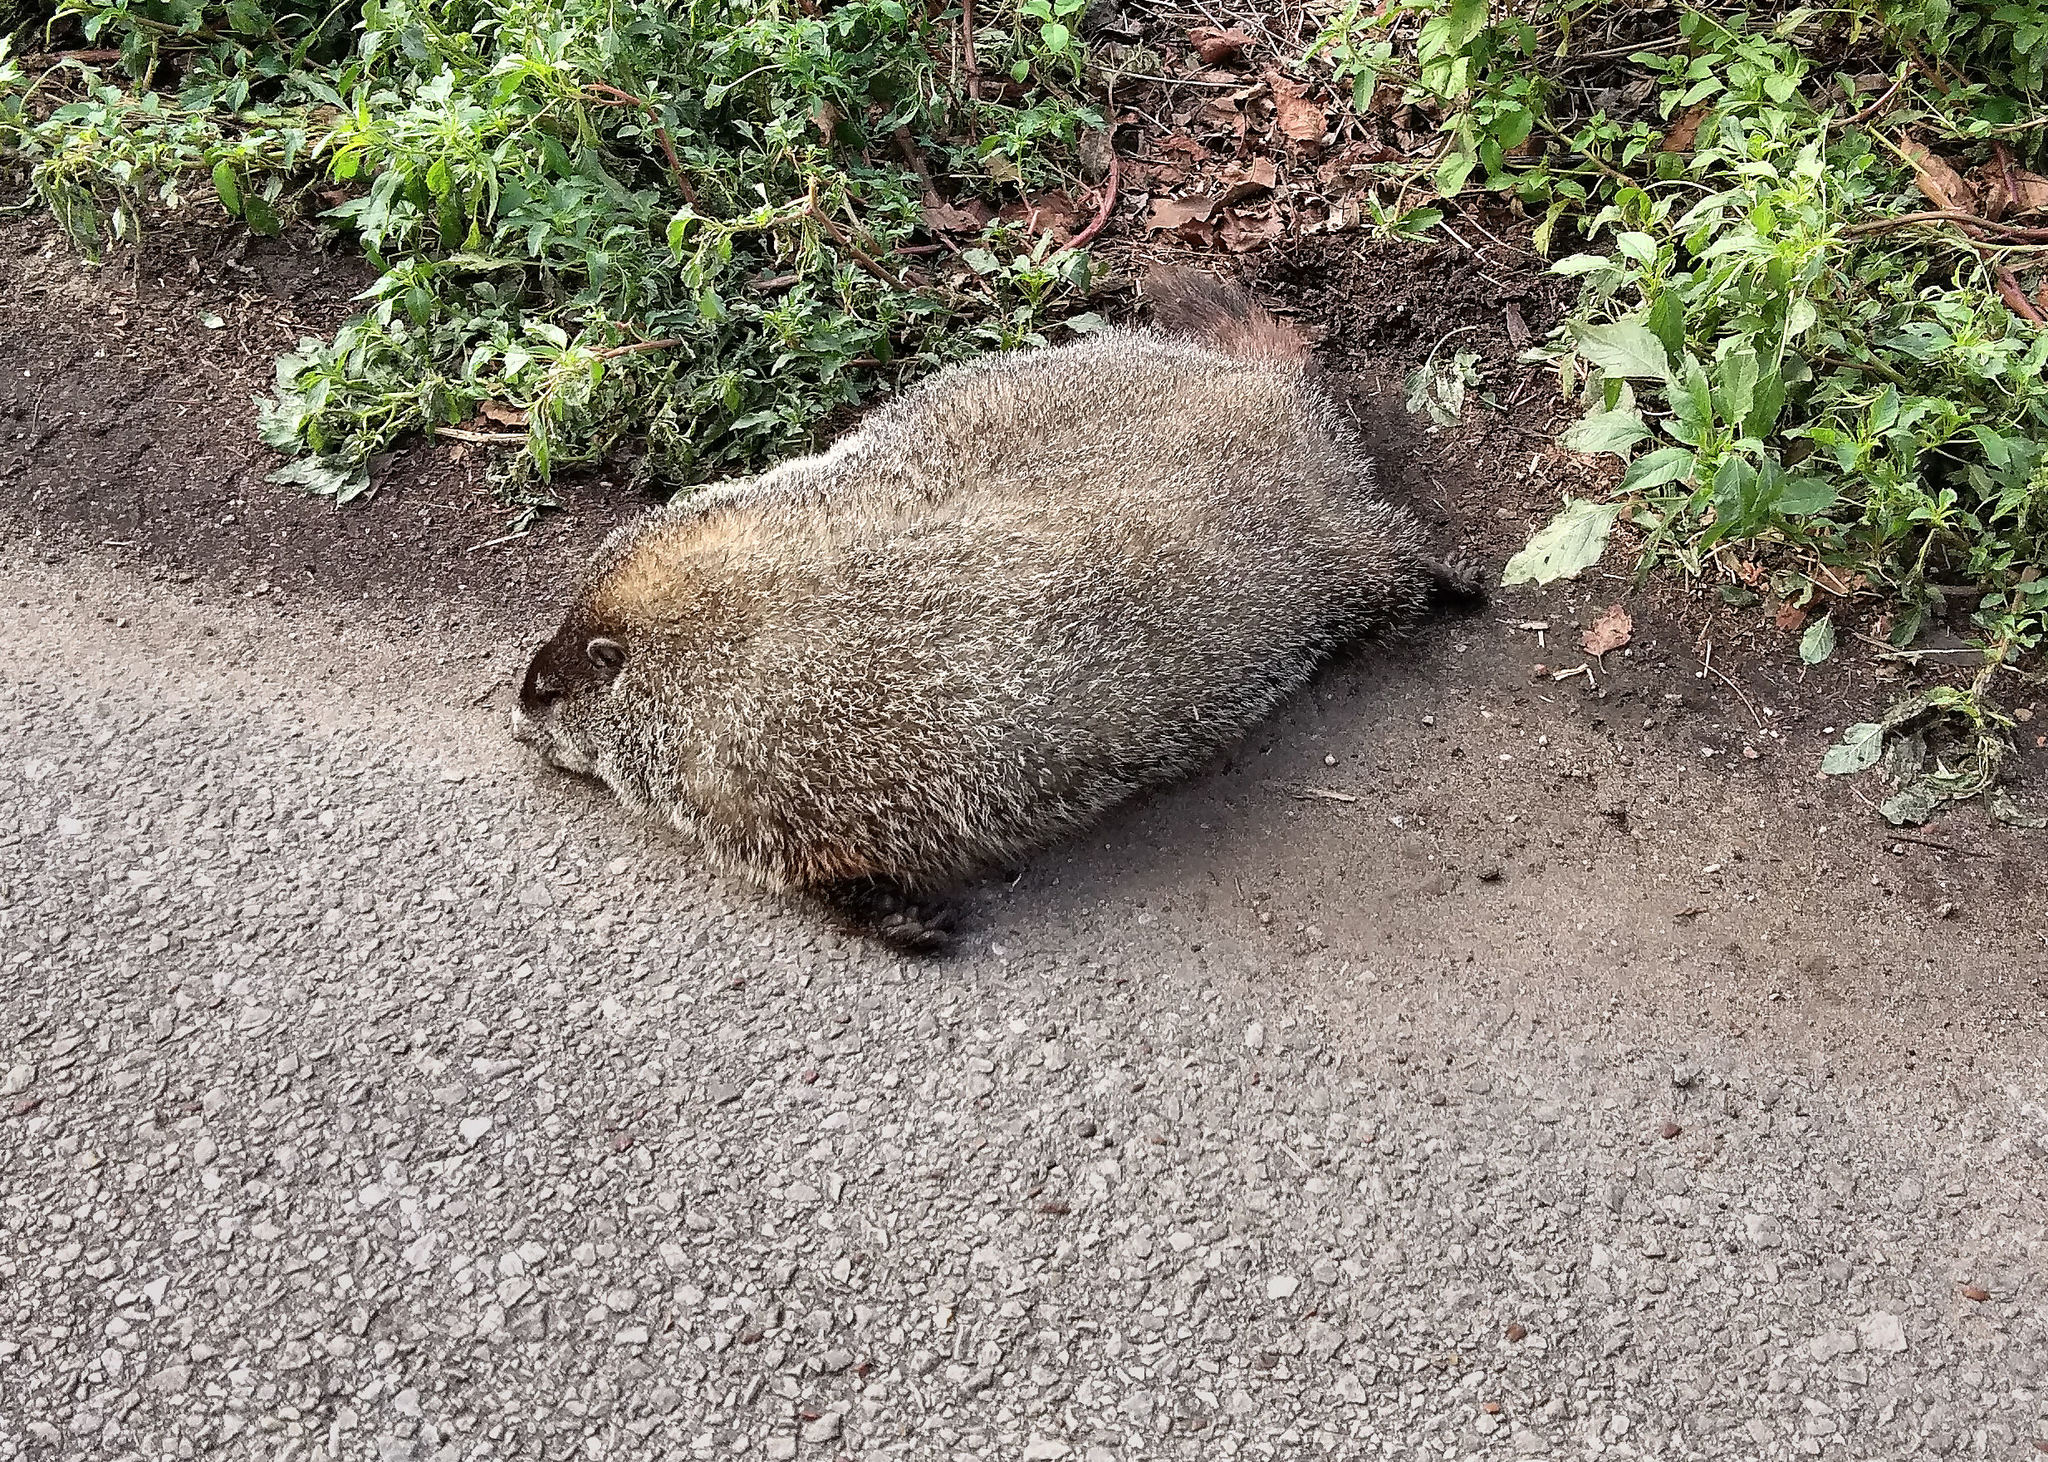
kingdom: Animalia
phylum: Chordata
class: Mammalia
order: Rodentia
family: Sciuridae
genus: Marmota
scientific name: Marmota monax
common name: Groundhog
